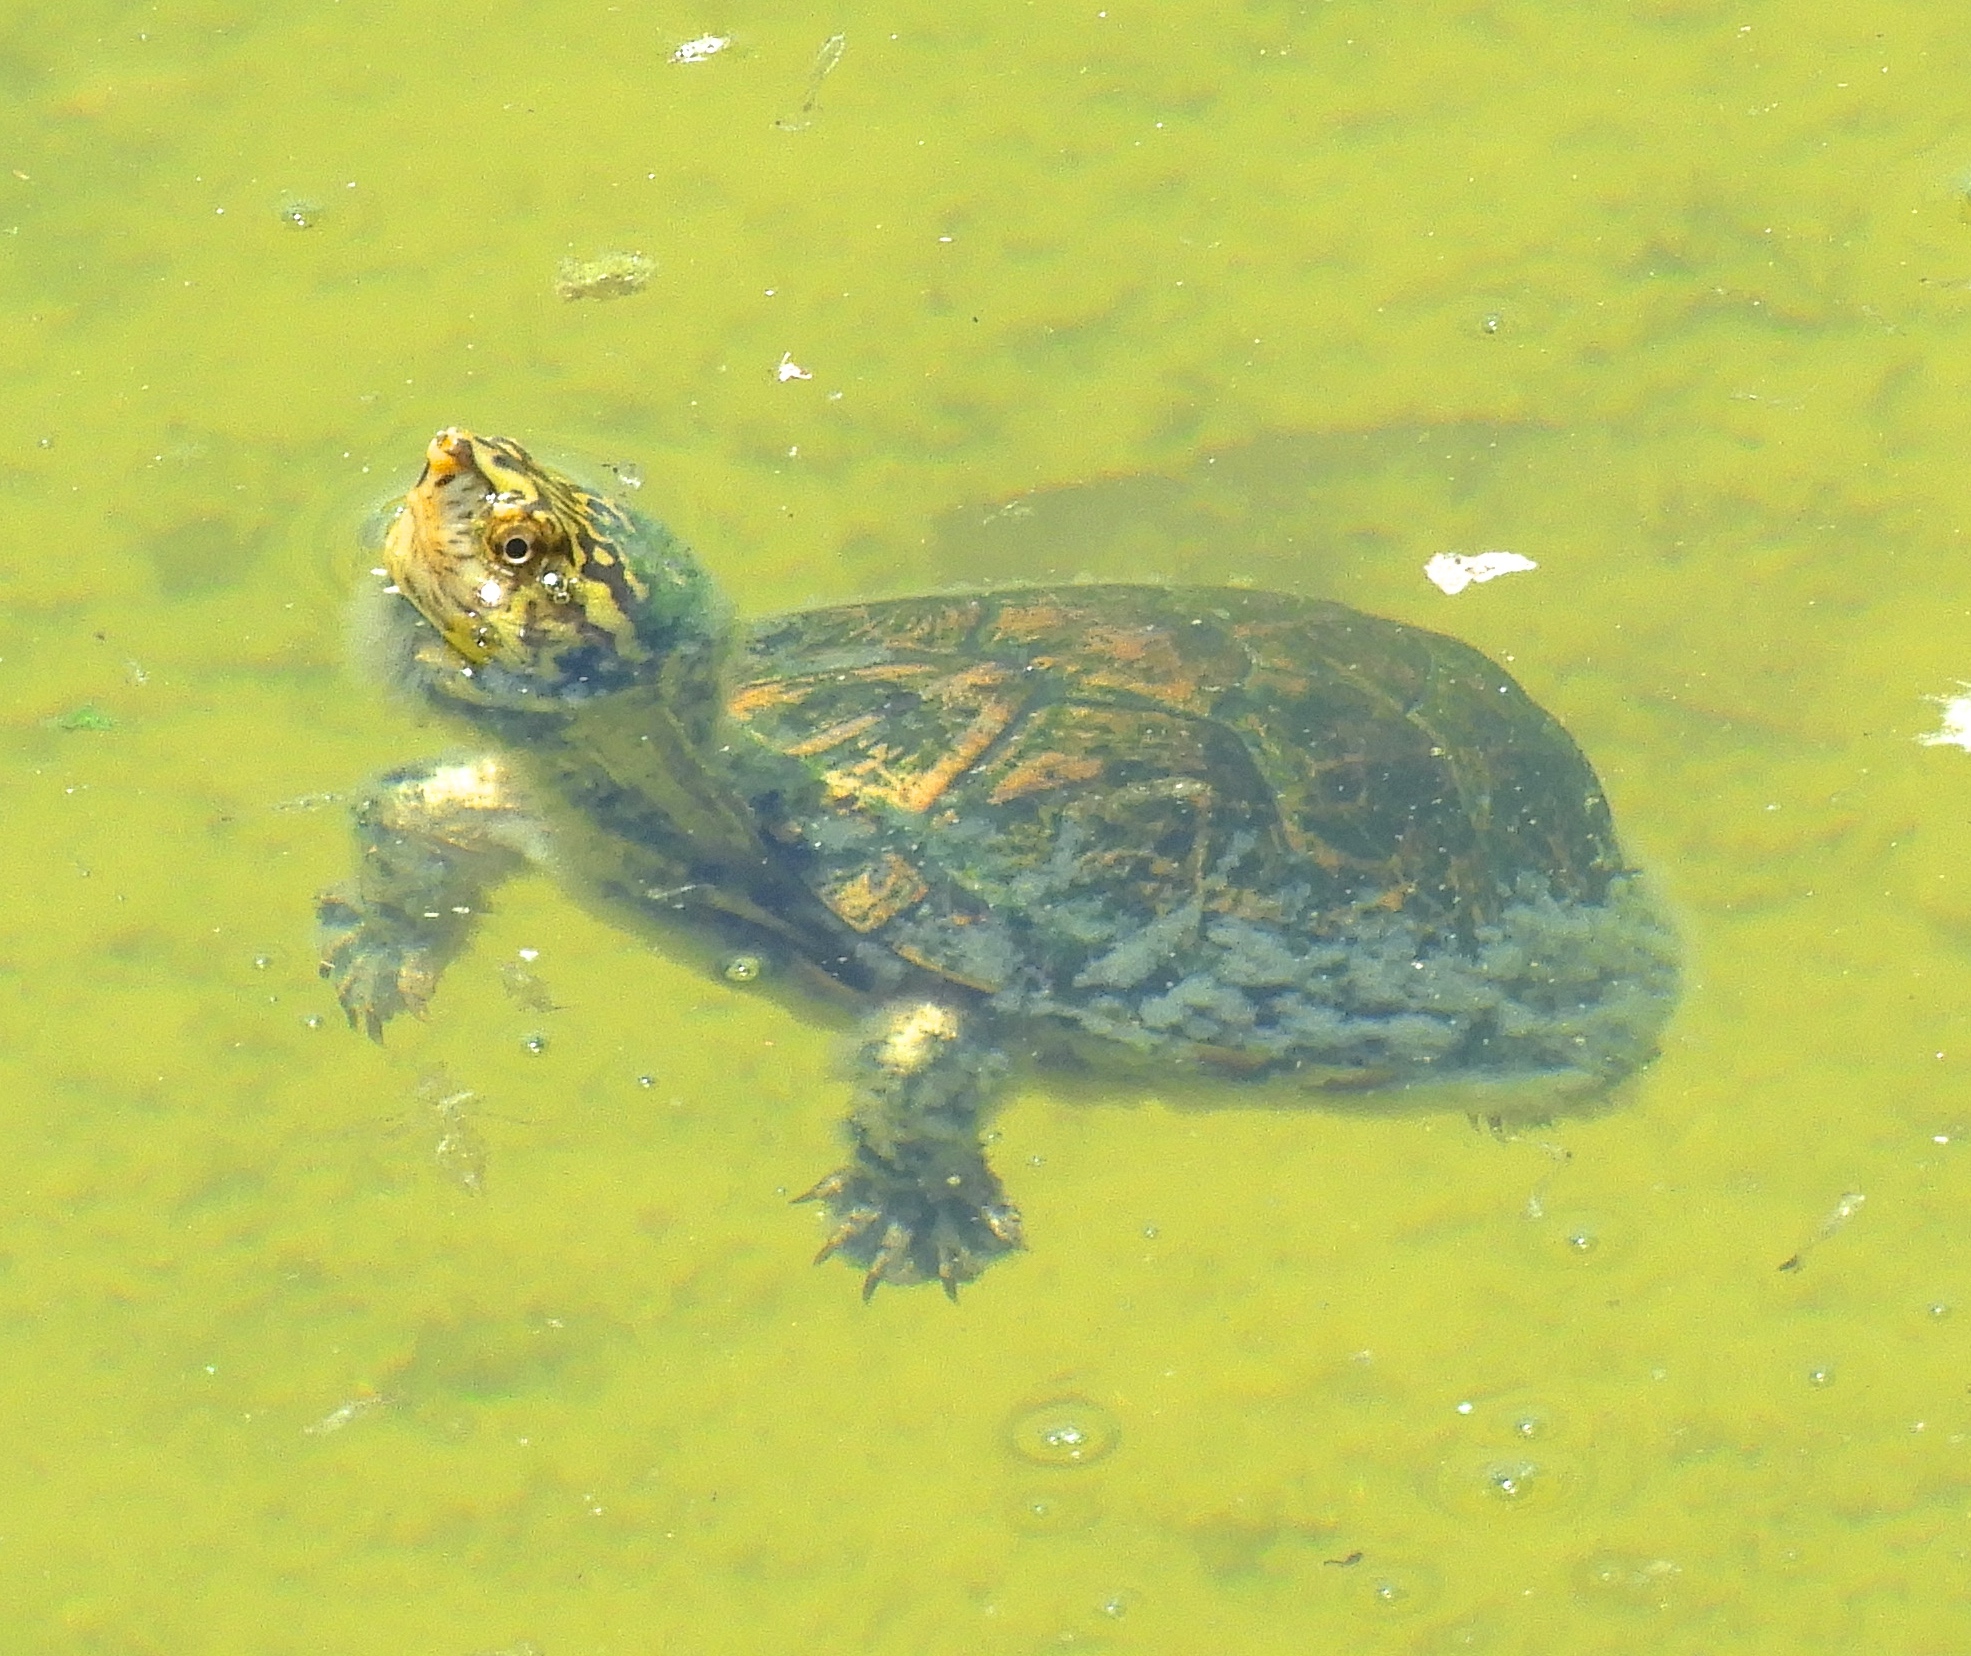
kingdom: Animalia
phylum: Chordata
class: Testudines
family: Kinosternidae
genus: Kinosternon
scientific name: Kinosternon integrum
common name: Mexican mud turtle
